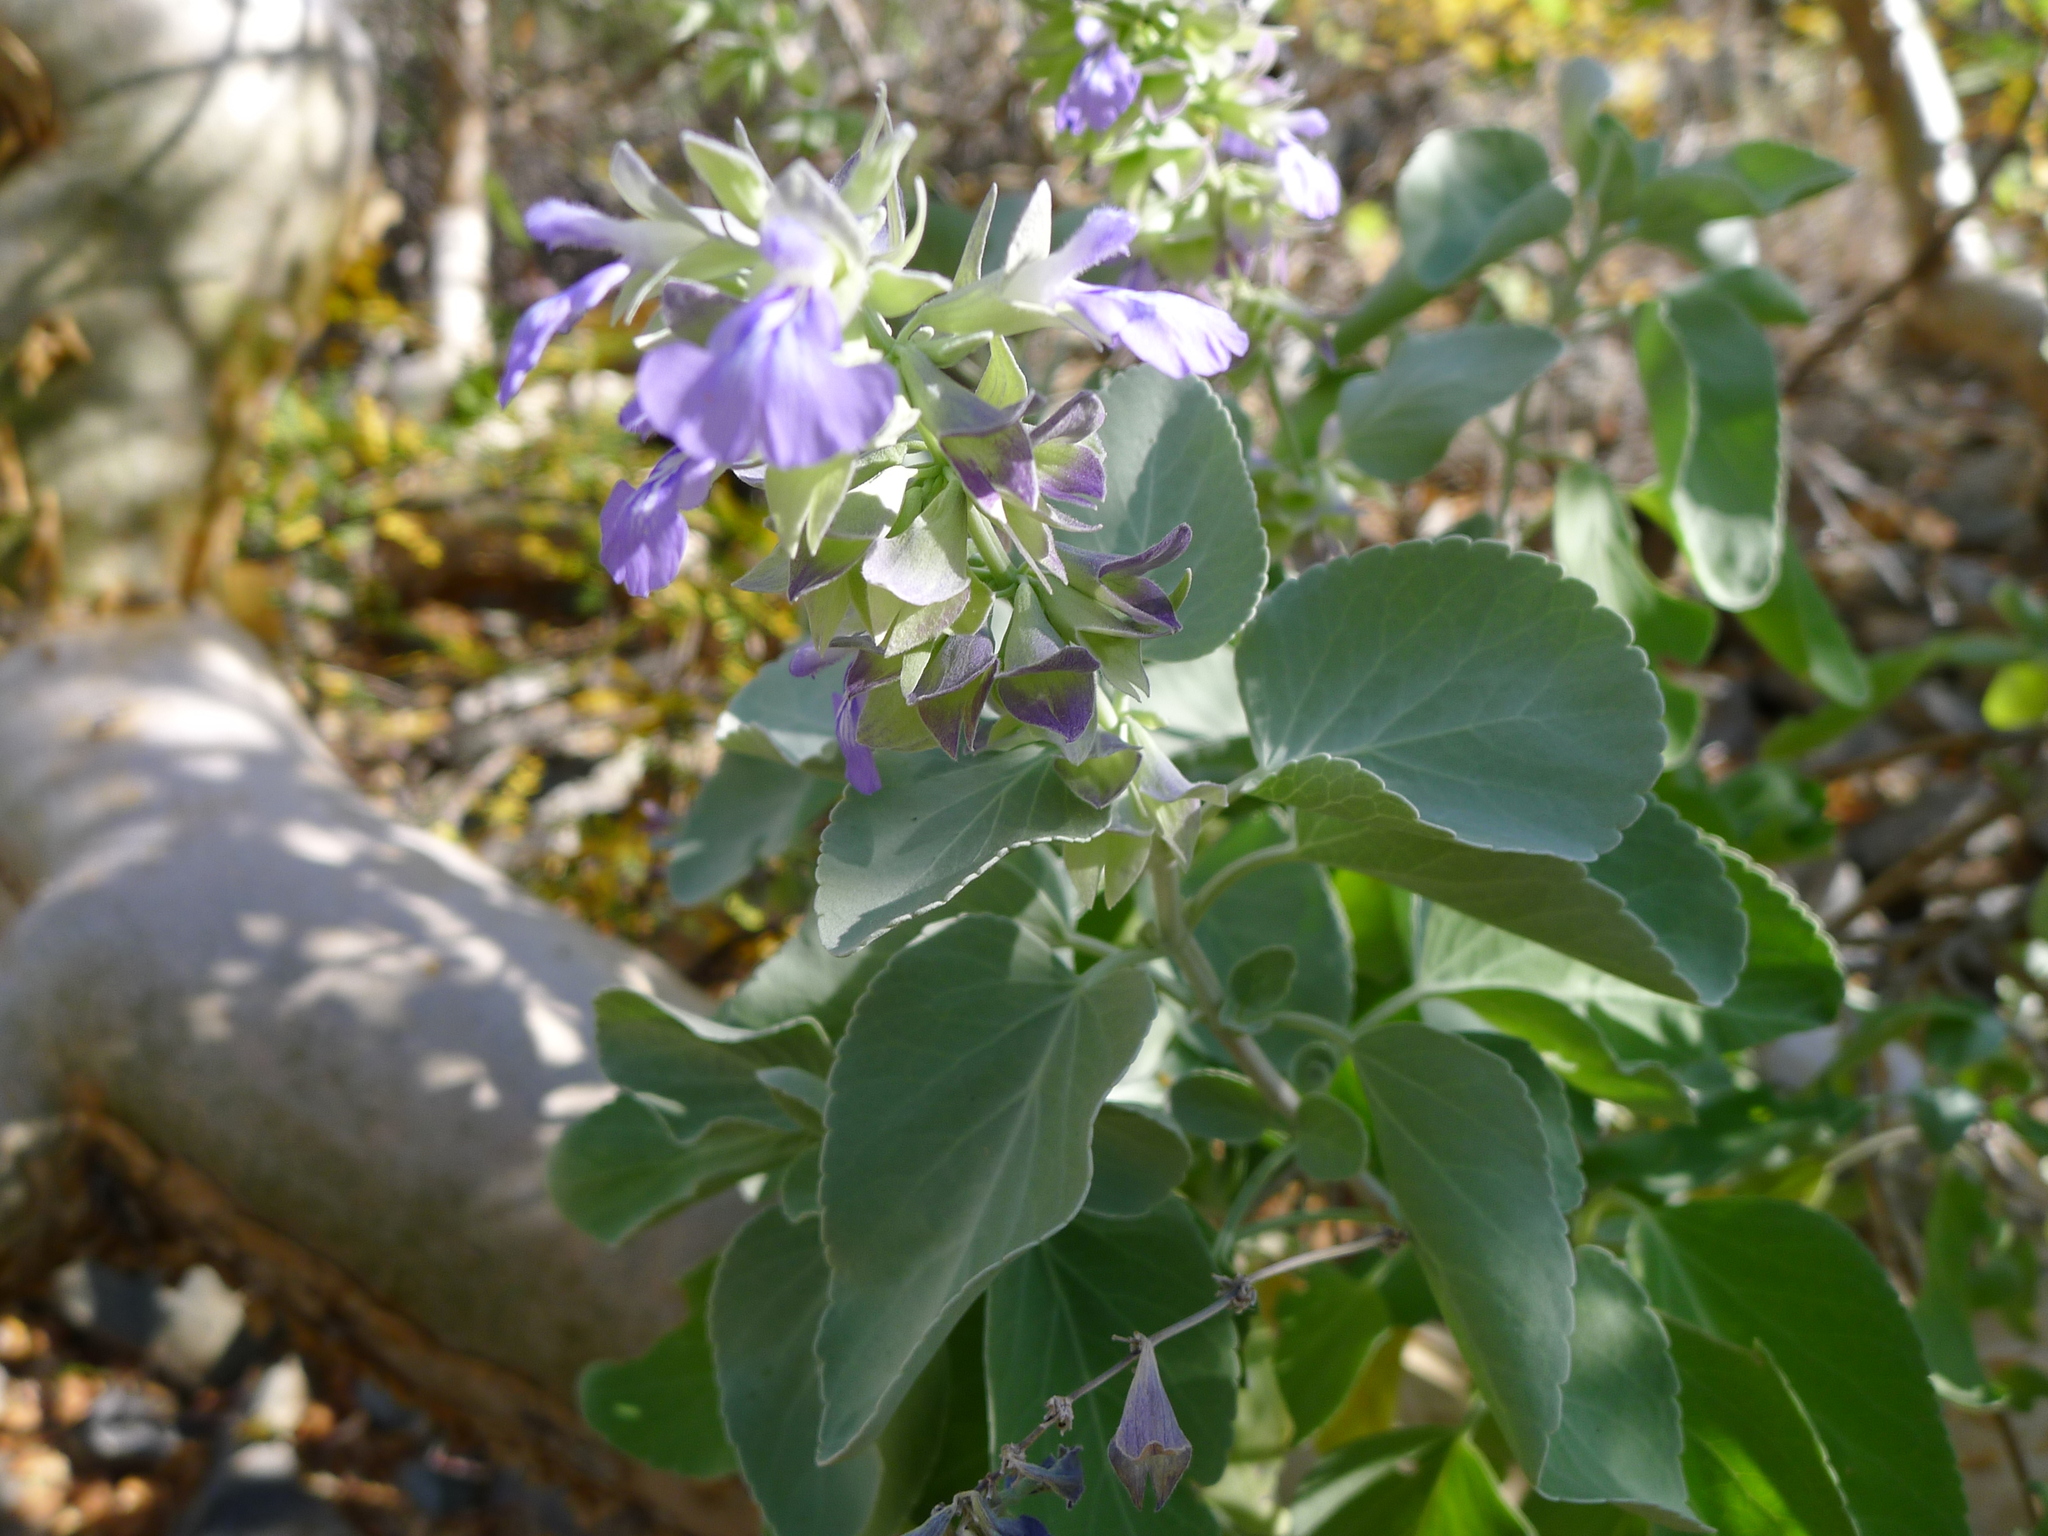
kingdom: Plantae
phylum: Tracheophyta
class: Magnoliopsida
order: Lamiales
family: Lamiaceae
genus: Salvia
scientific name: Salvia platycheila
